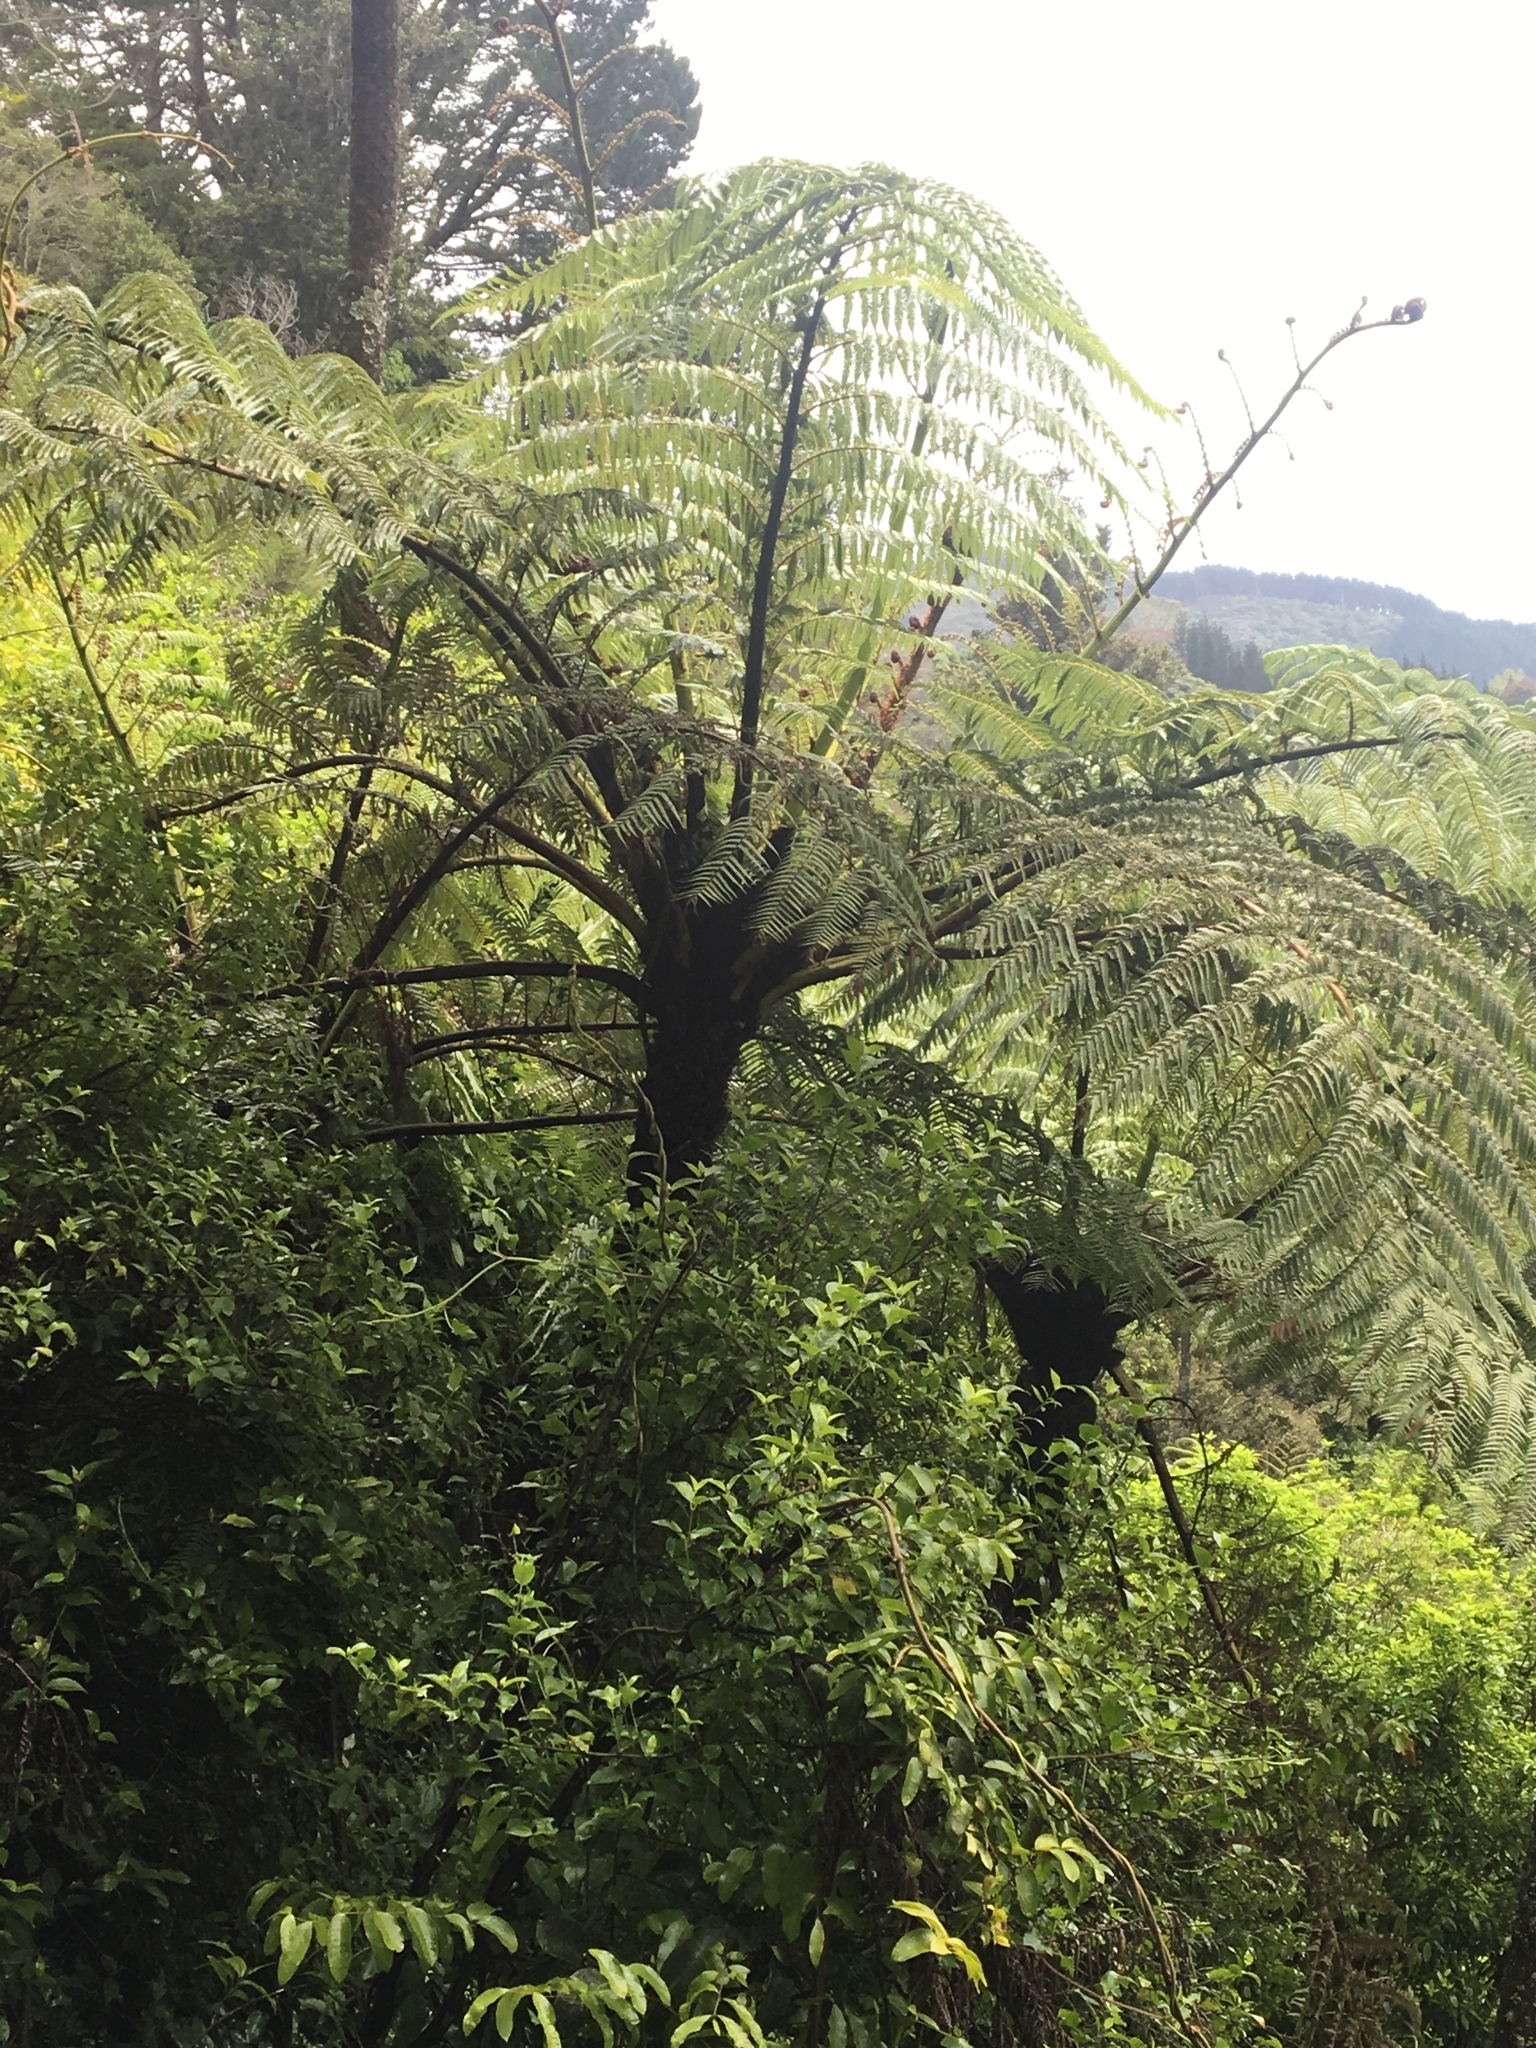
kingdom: Plantae
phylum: Tracheophyta
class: Polypodiopsida
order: Cyatheales
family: Cyatheaceae
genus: Sphaeropteris
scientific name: Sphaeropteris medullaris
